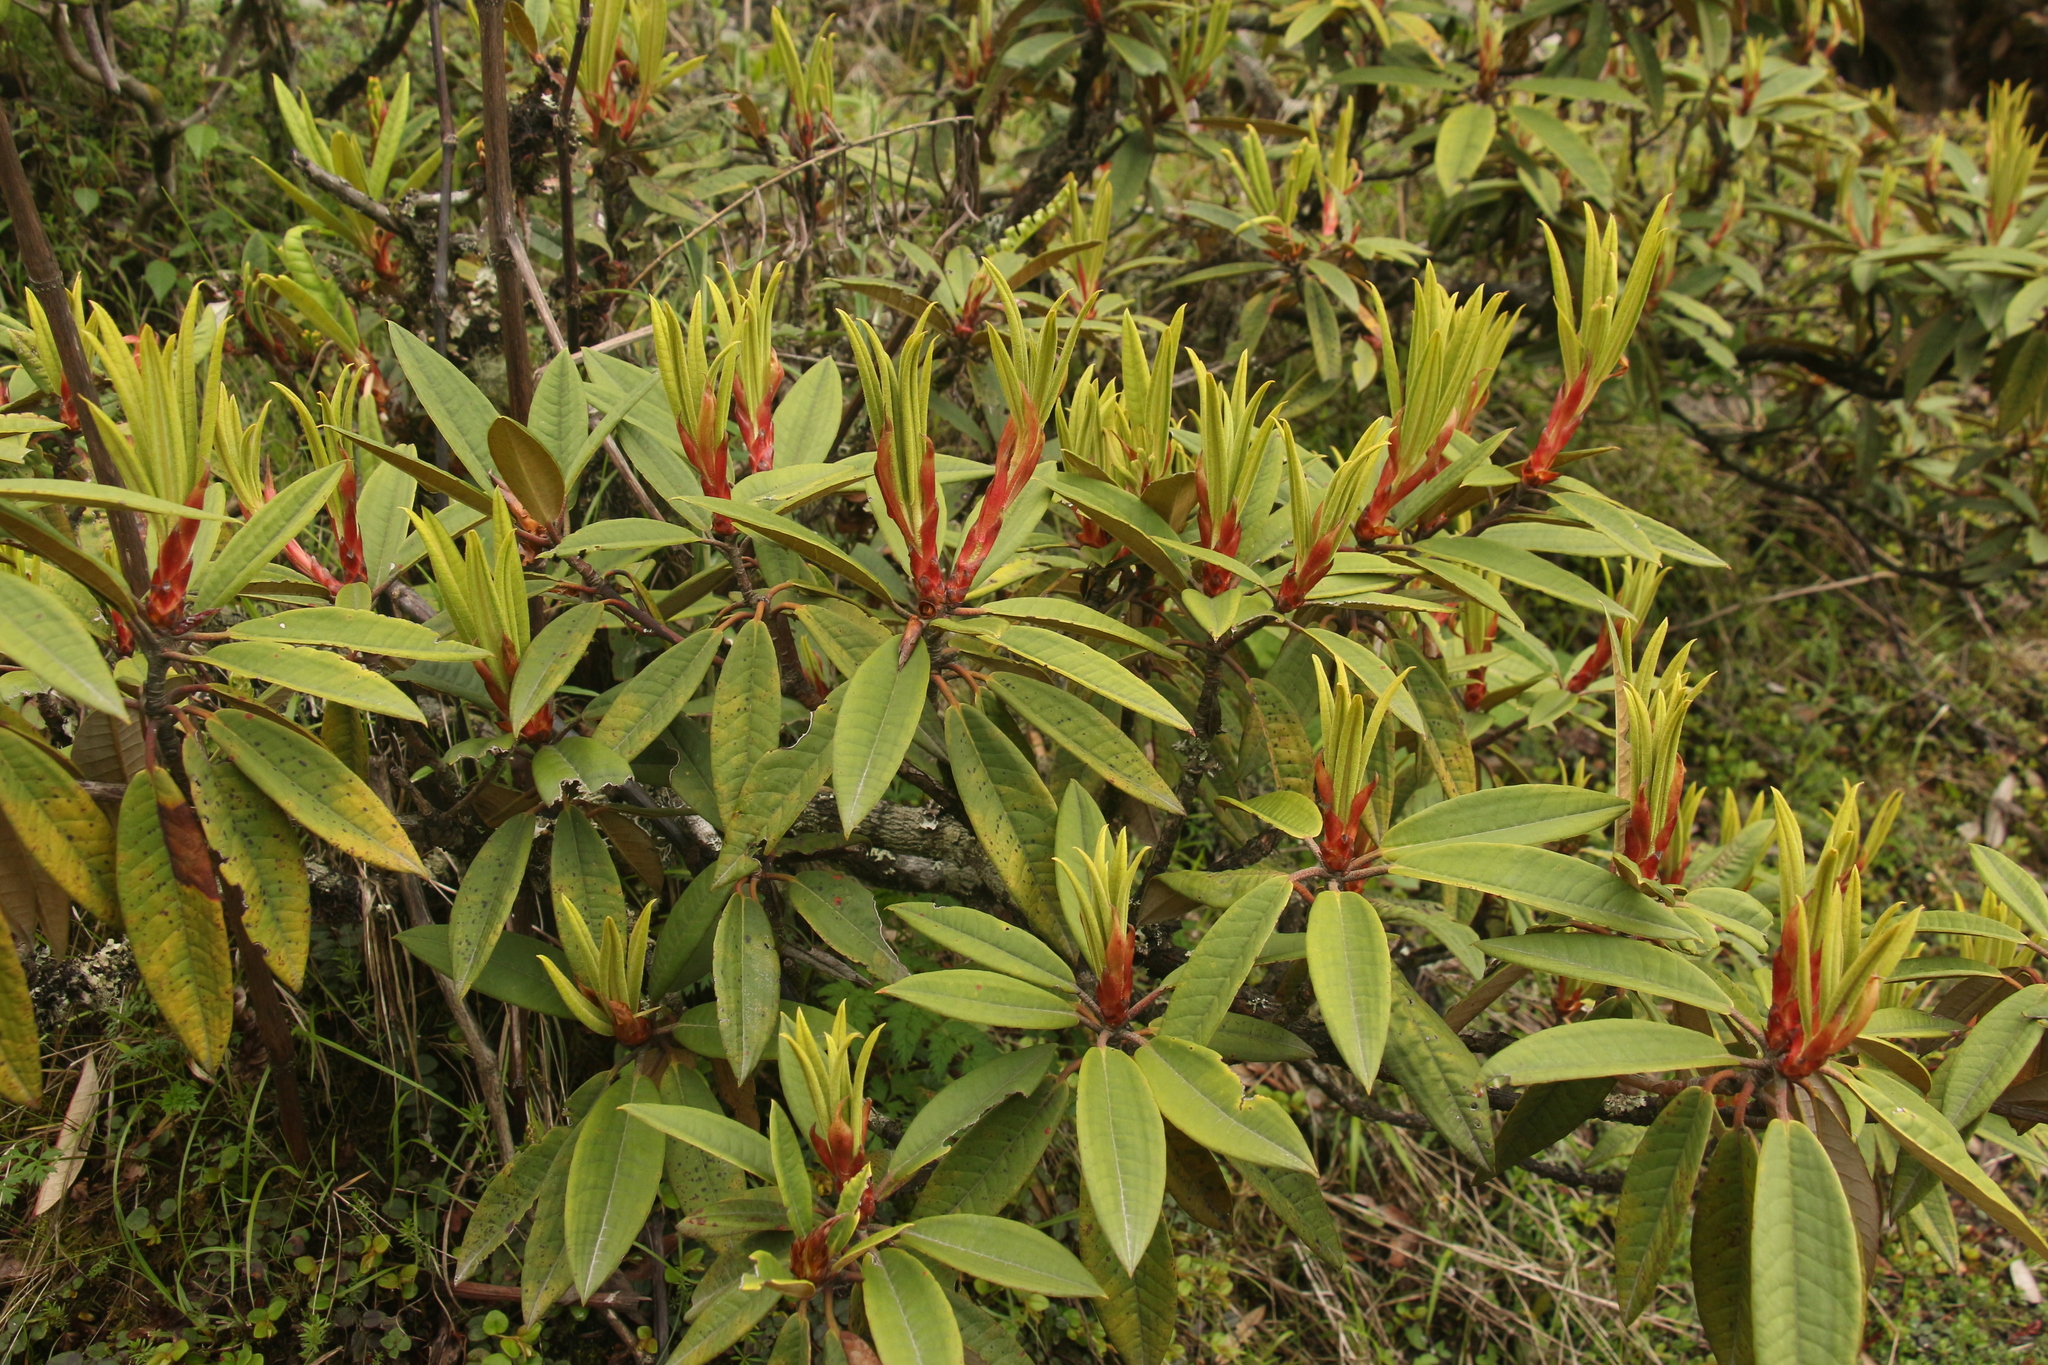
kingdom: Plantae
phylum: Tracheophyta
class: Magnoliopsida
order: Ericales
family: Ericaceae
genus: Rhododendron
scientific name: Rhododendron arboreum
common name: Tree rhododendron
